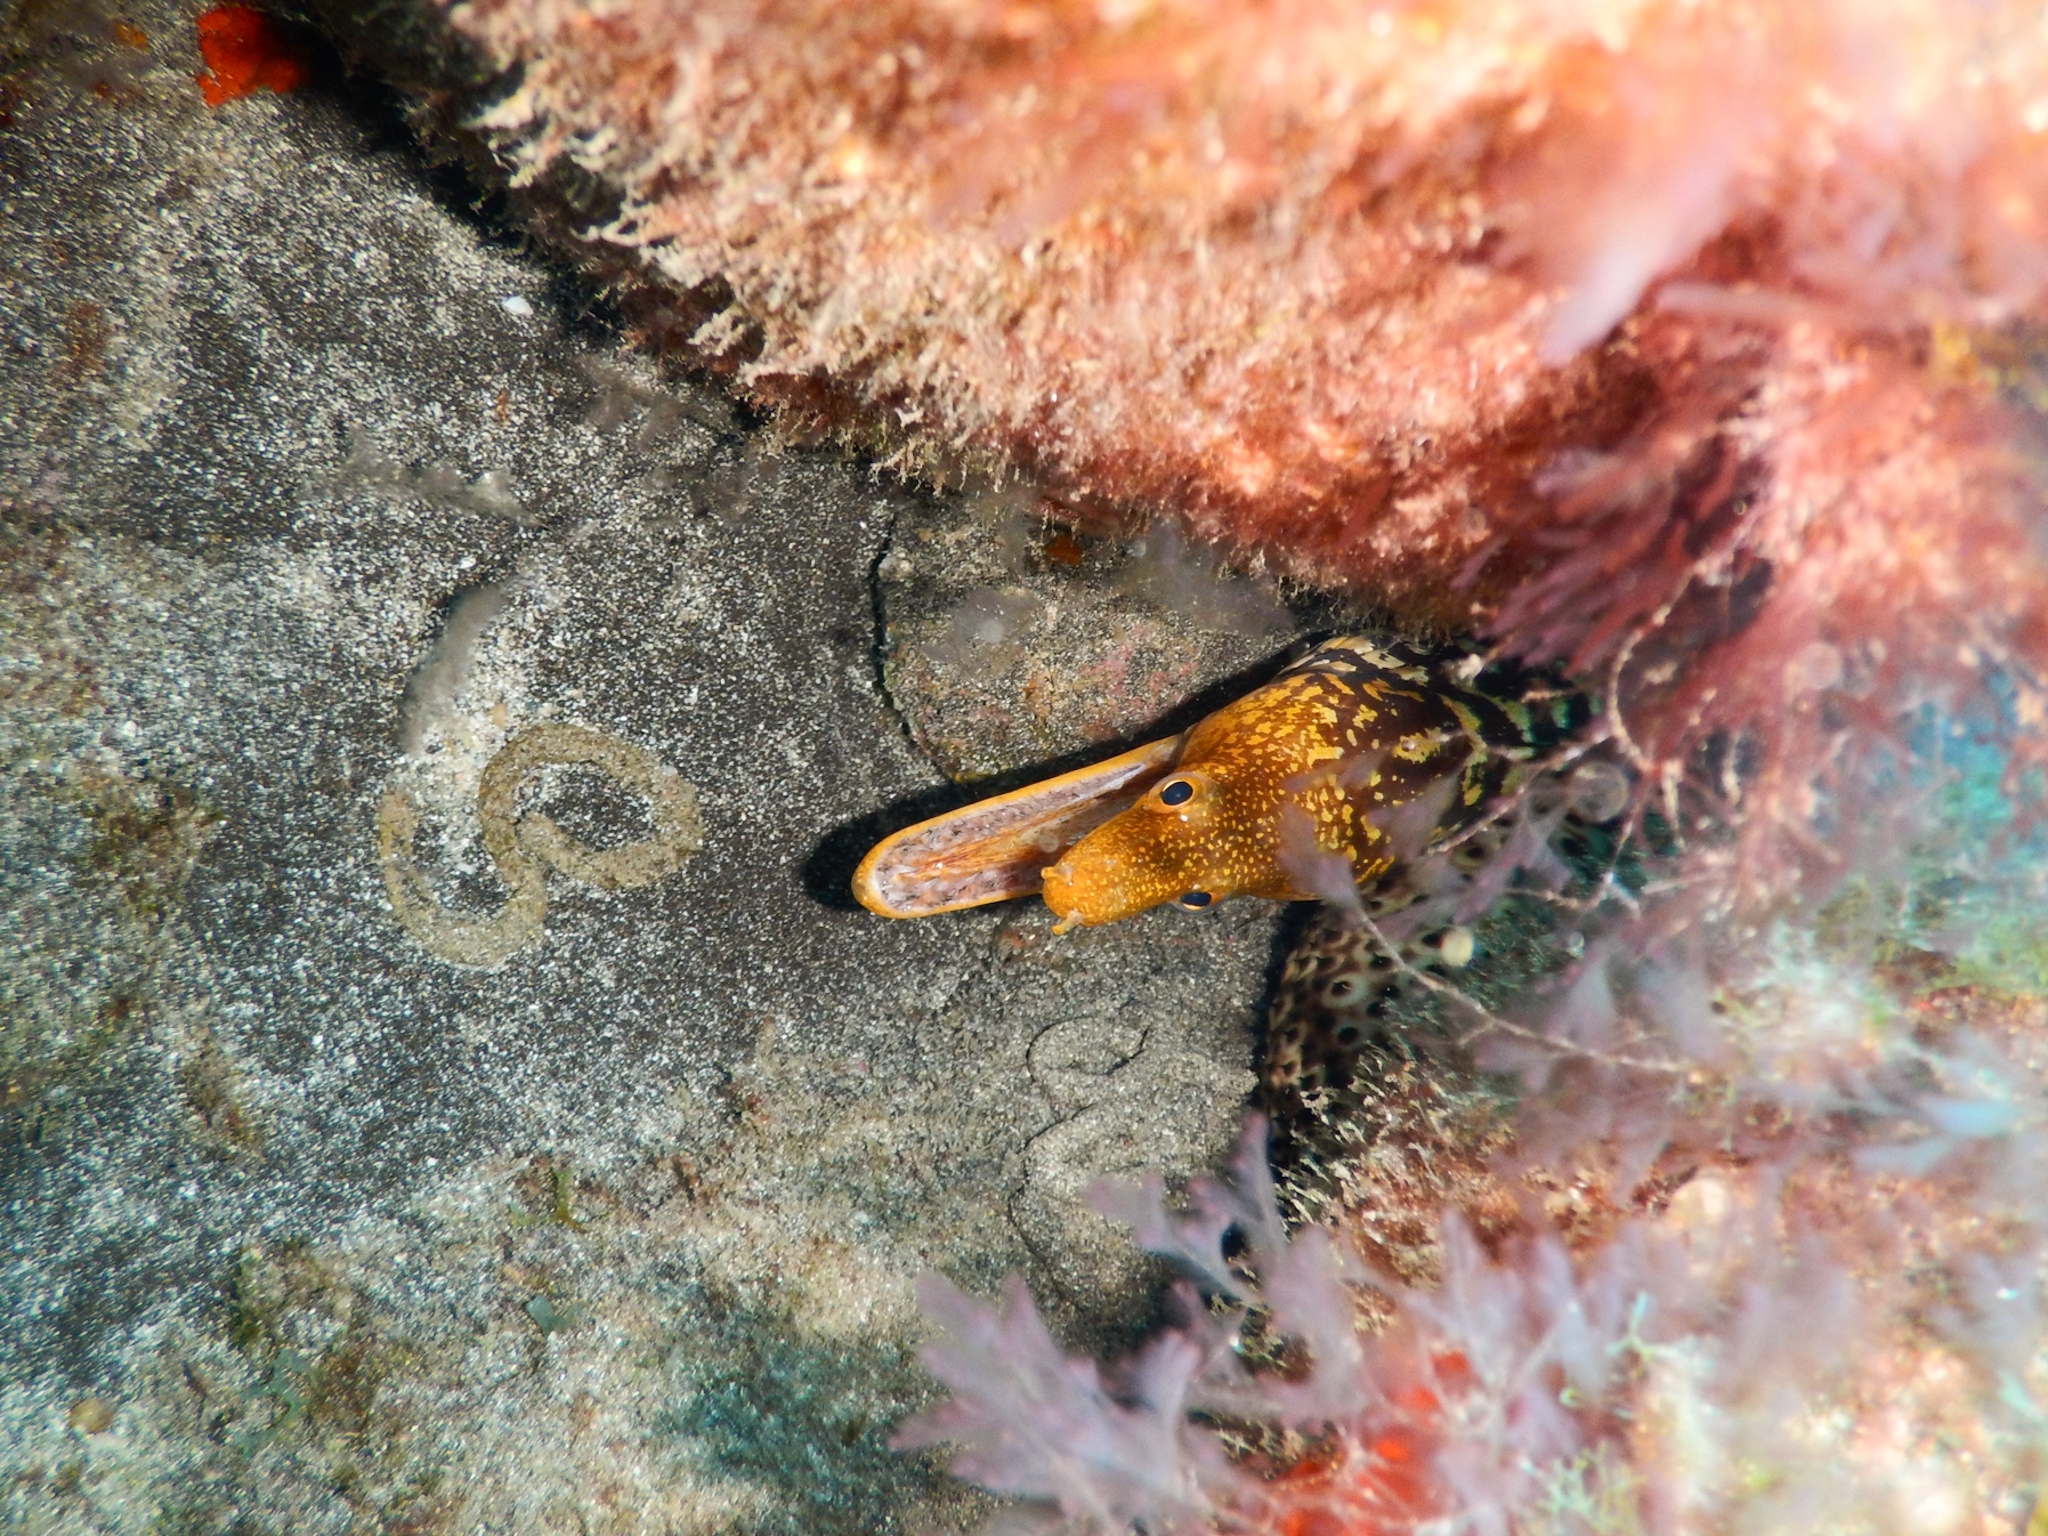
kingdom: Animalia
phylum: Chordata
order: Anguilliformes
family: Muraenidae
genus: Enchelycore
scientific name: Enchelycore anatina
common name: Fangtooth moray
